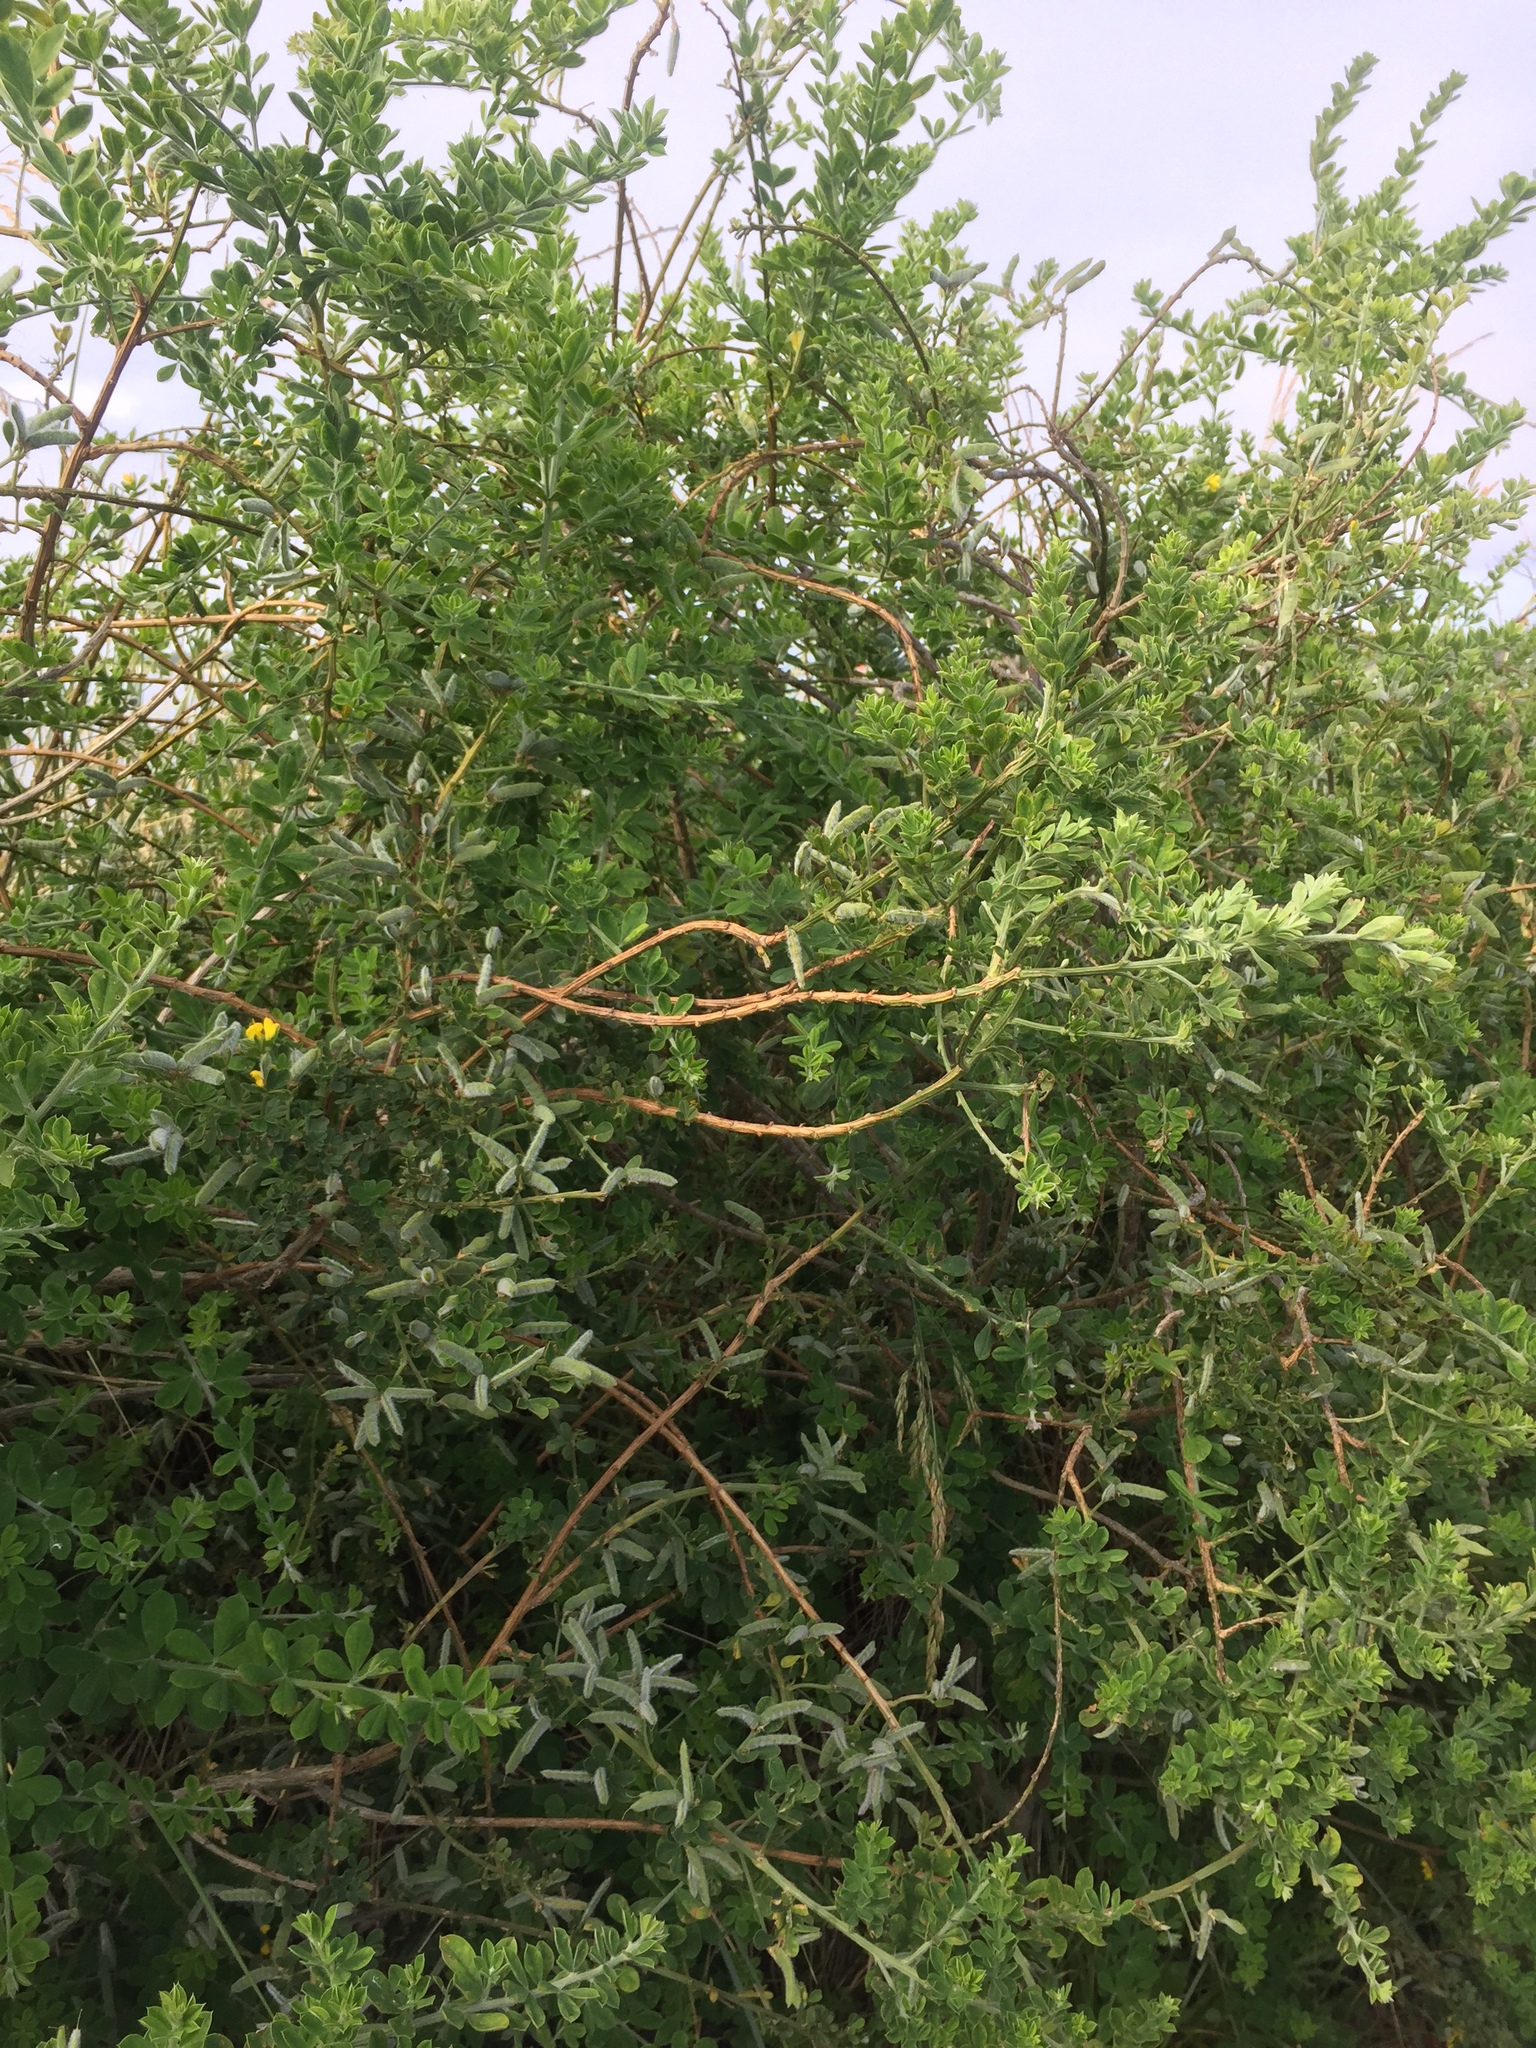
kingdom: Plantae
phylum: Tracheophyta
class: Magnoliopsida
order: Fabales
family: Fabaceae
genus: Genista
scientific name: Genista monspessulana
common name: Montpellier broom
